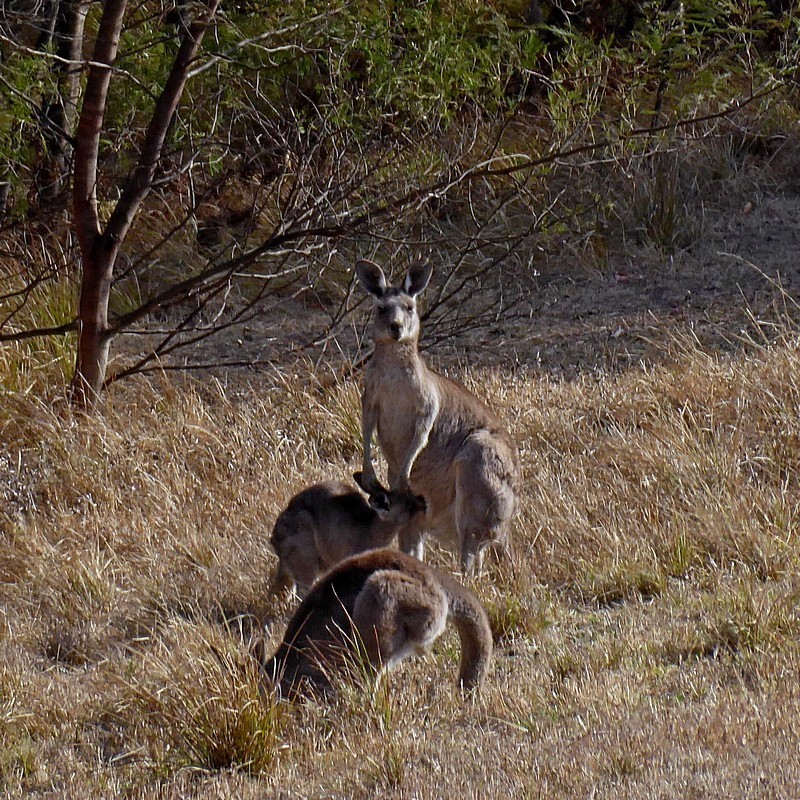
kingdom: Animalia
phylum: Chordata
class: Mammalia
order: Diprotodontia
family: Macropodidae
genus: Macropus
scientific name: Macropus giganteus
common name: Eastern grey kangaroo
